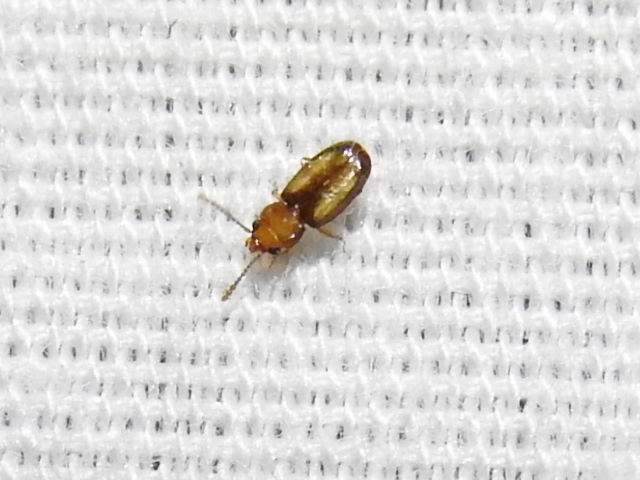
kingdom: Animalia
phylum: Arthropoda
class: Insecta
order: Coleoptera
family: Laemophloeidae
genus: Laemophloeus
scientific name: Laemophloeus terminalis
